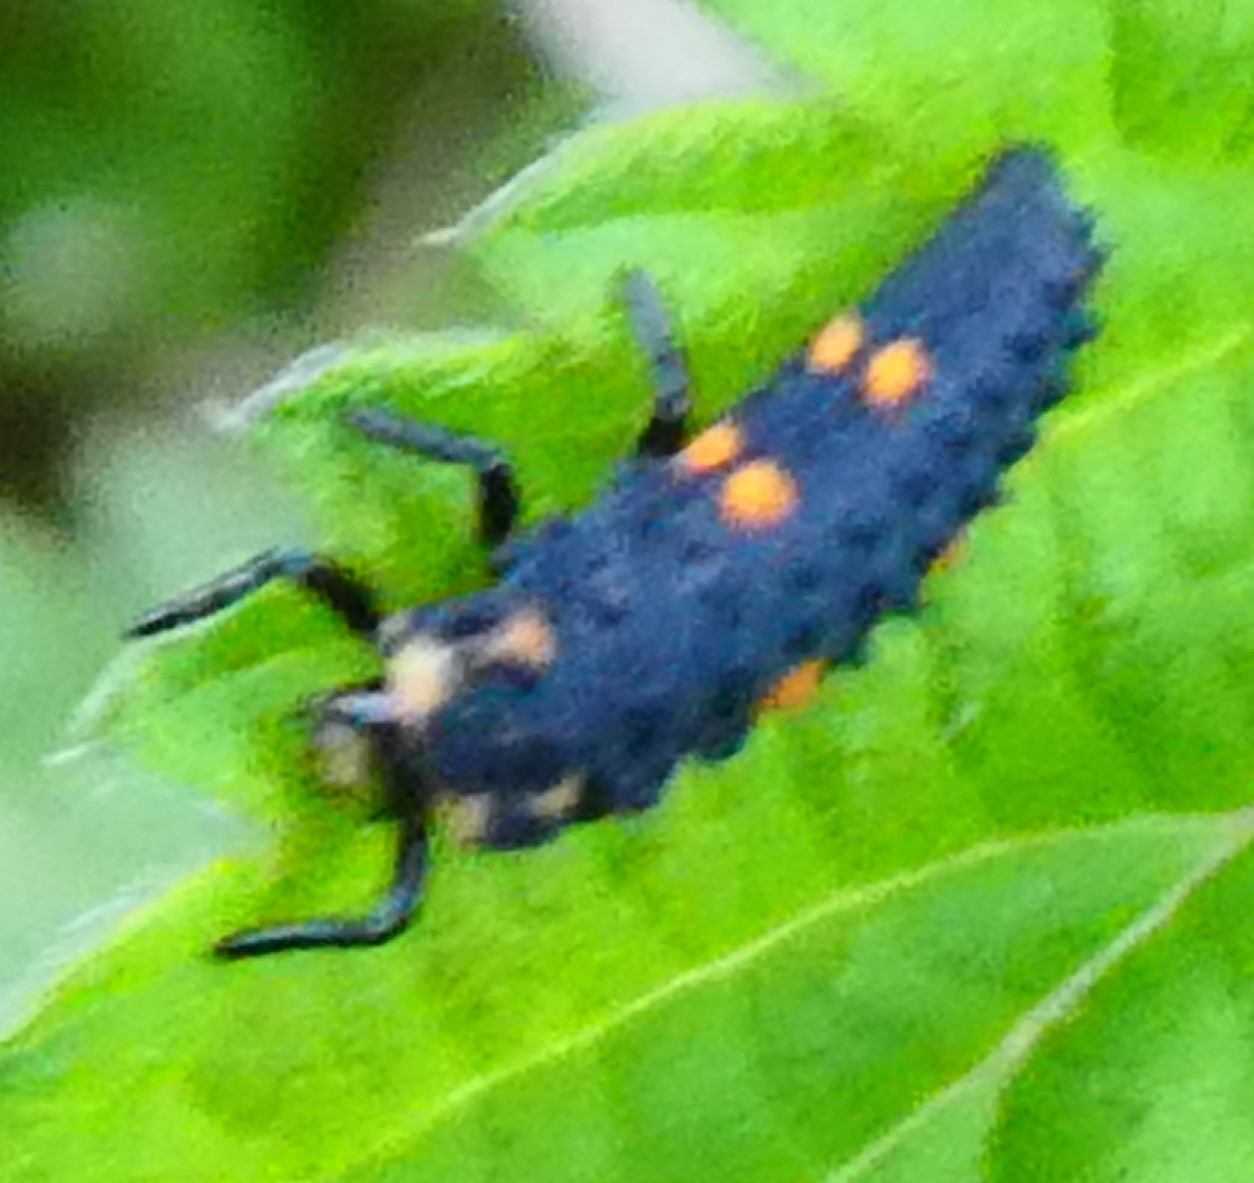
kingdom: Animalia
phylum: Arthropoda
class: Insecta
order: Coleoptera
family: Coccinellidae
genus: Coccinella
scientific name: Coccinella septempunctata
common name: Sevenspotted lady beetle
